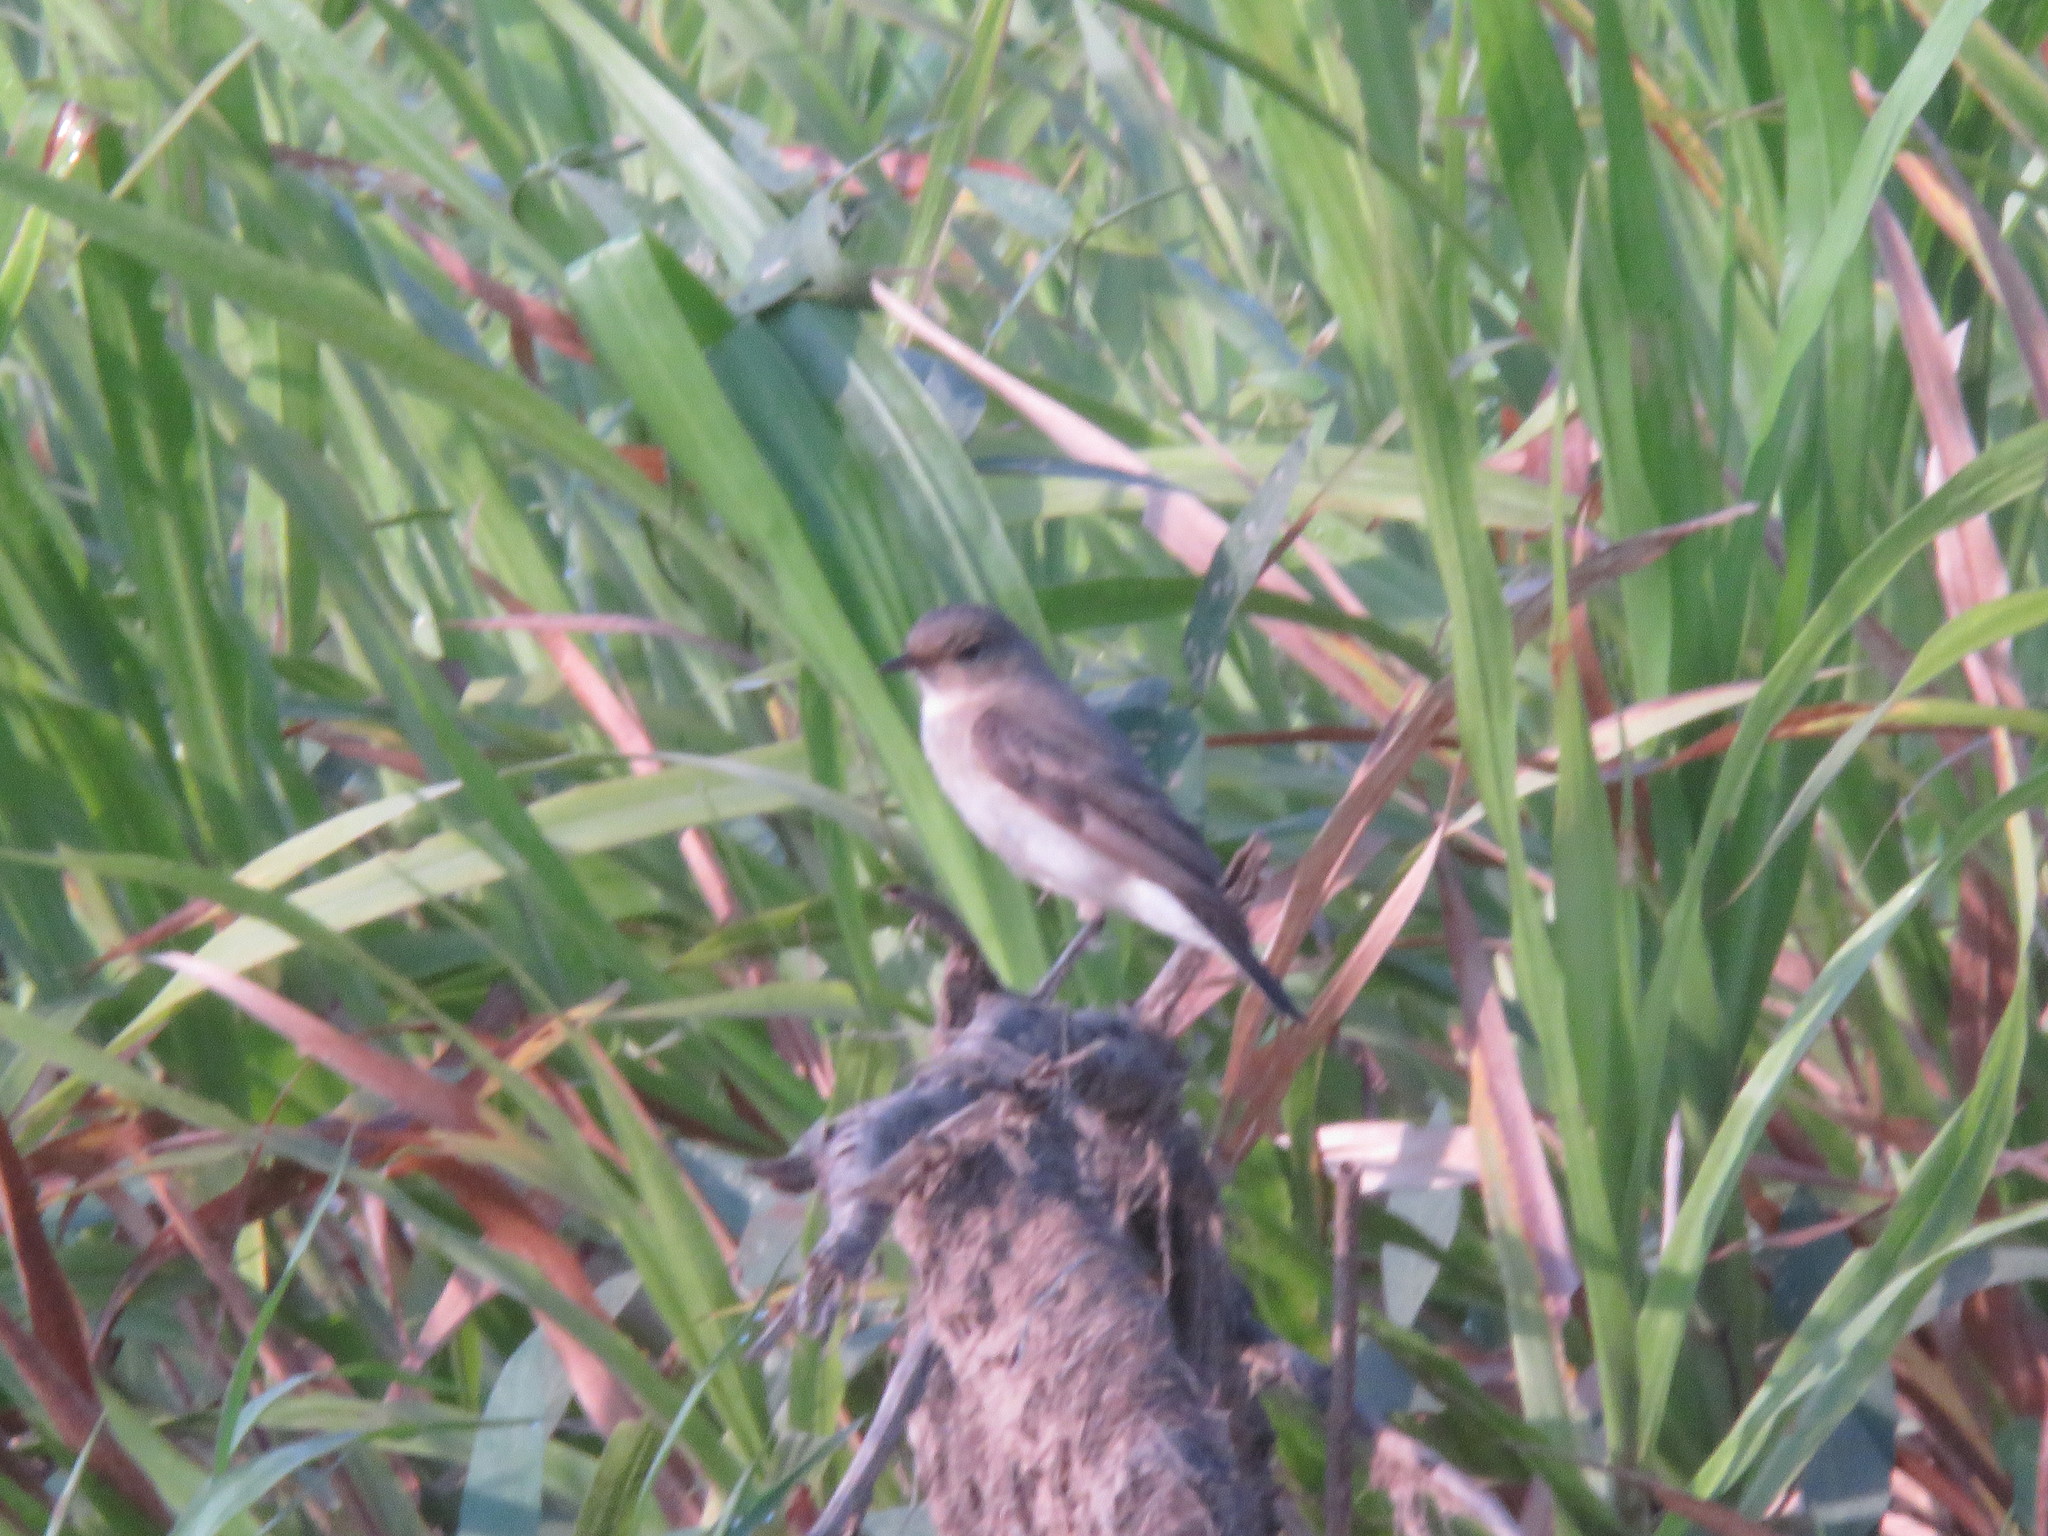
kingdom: Animalia
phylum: Chordata
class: Aves
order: Passeriformes
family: Tyrannidae
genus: Muscisaxicola
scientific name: Muscisaxicola fluviatilis
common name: Little ground tyrant
